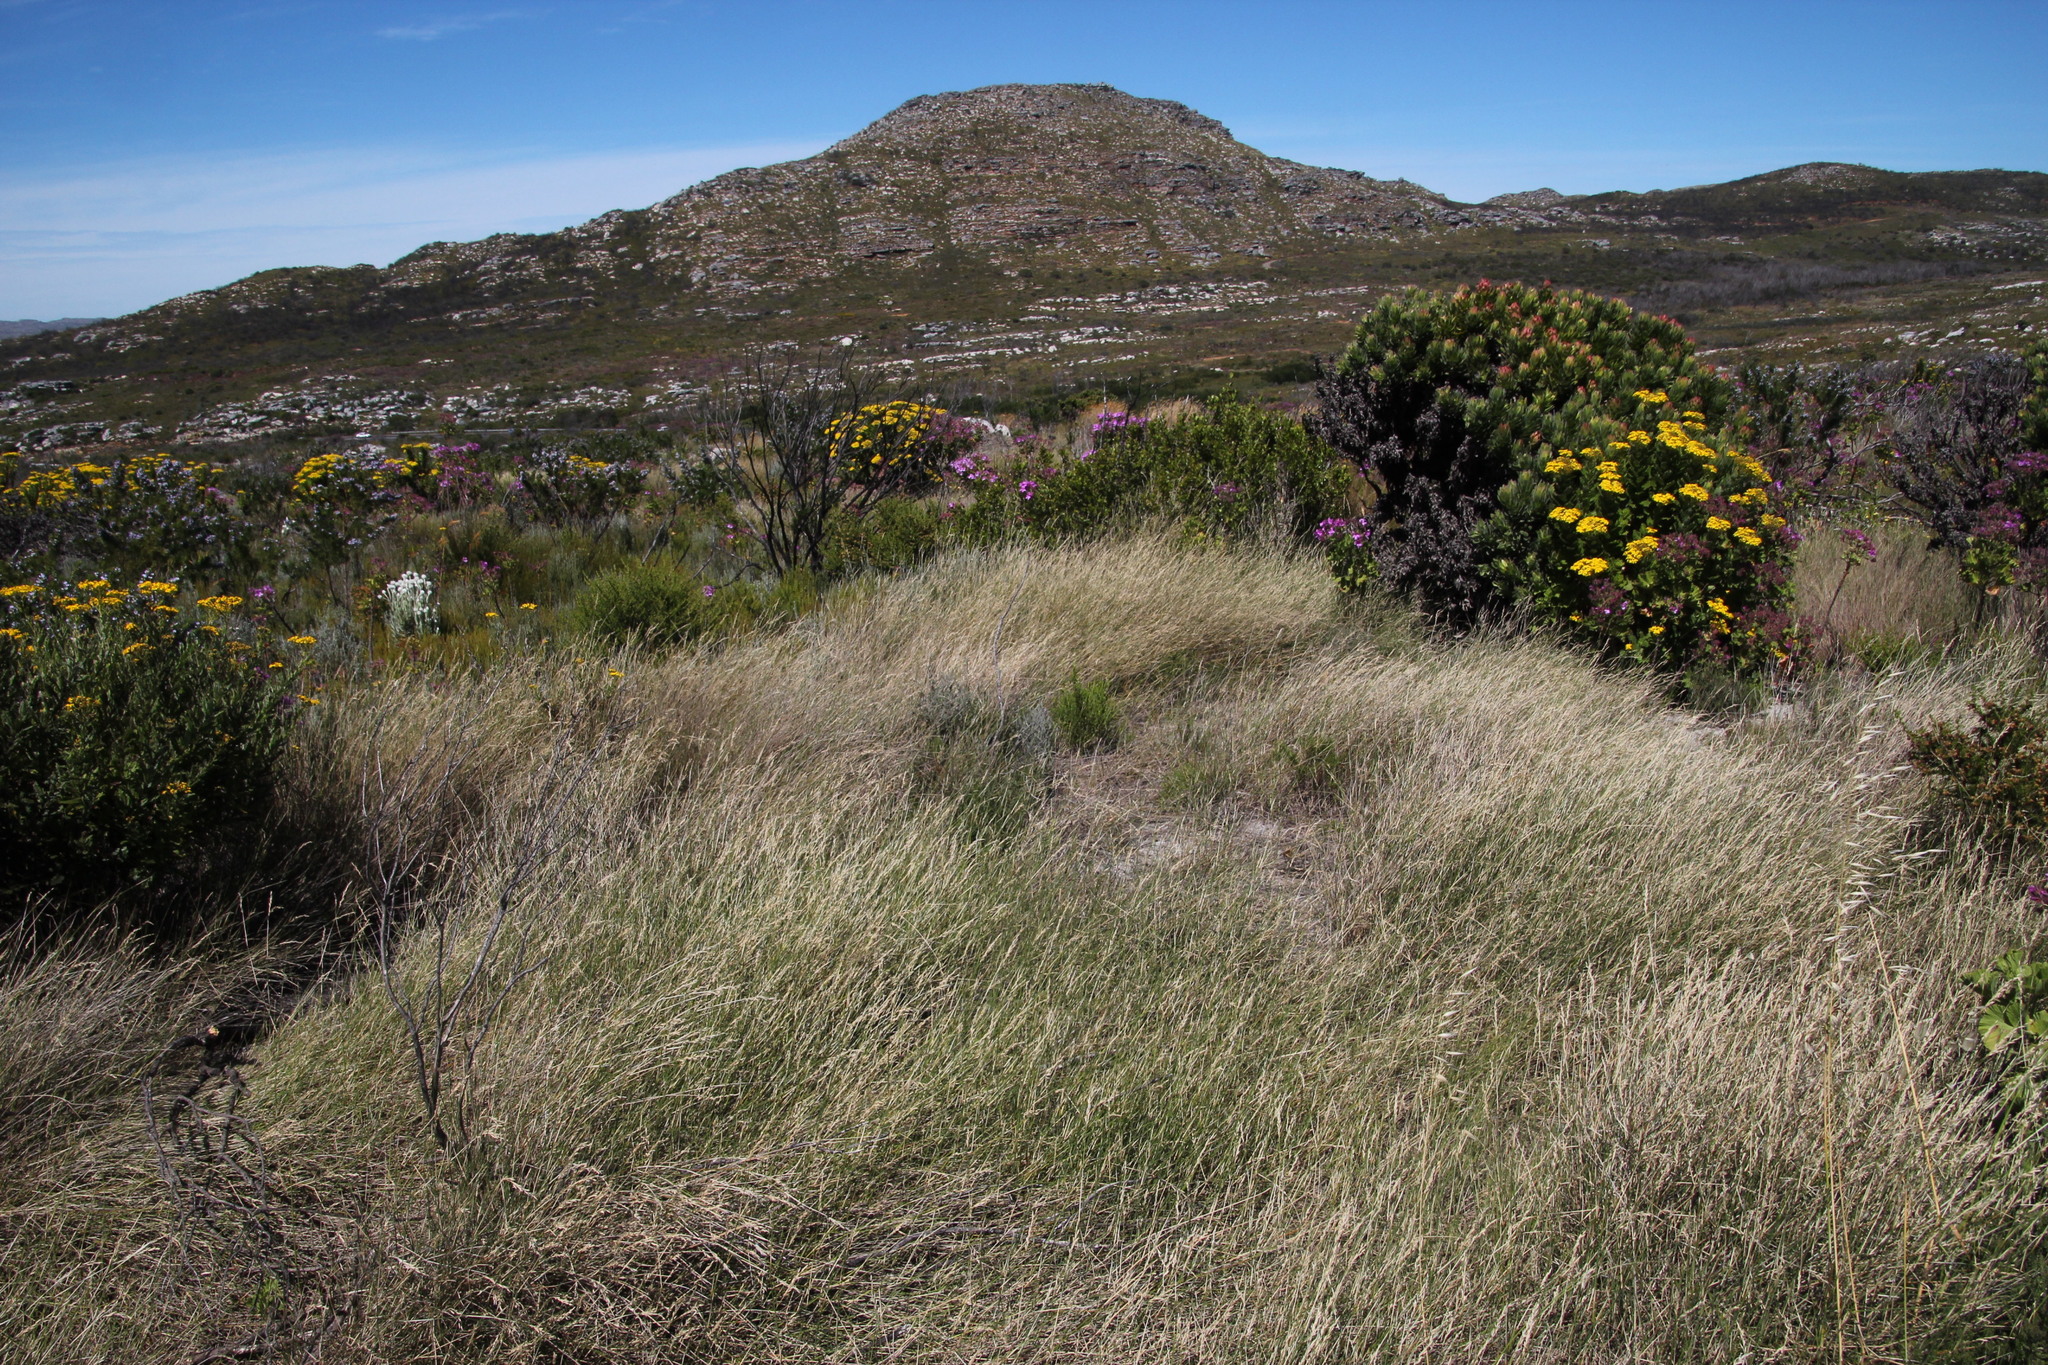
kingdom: Plantae
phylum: Tracheophyta
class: Liliopsida
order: Poales
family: Poaceae
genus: Ehrharta
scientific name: Ehrharta digyna
